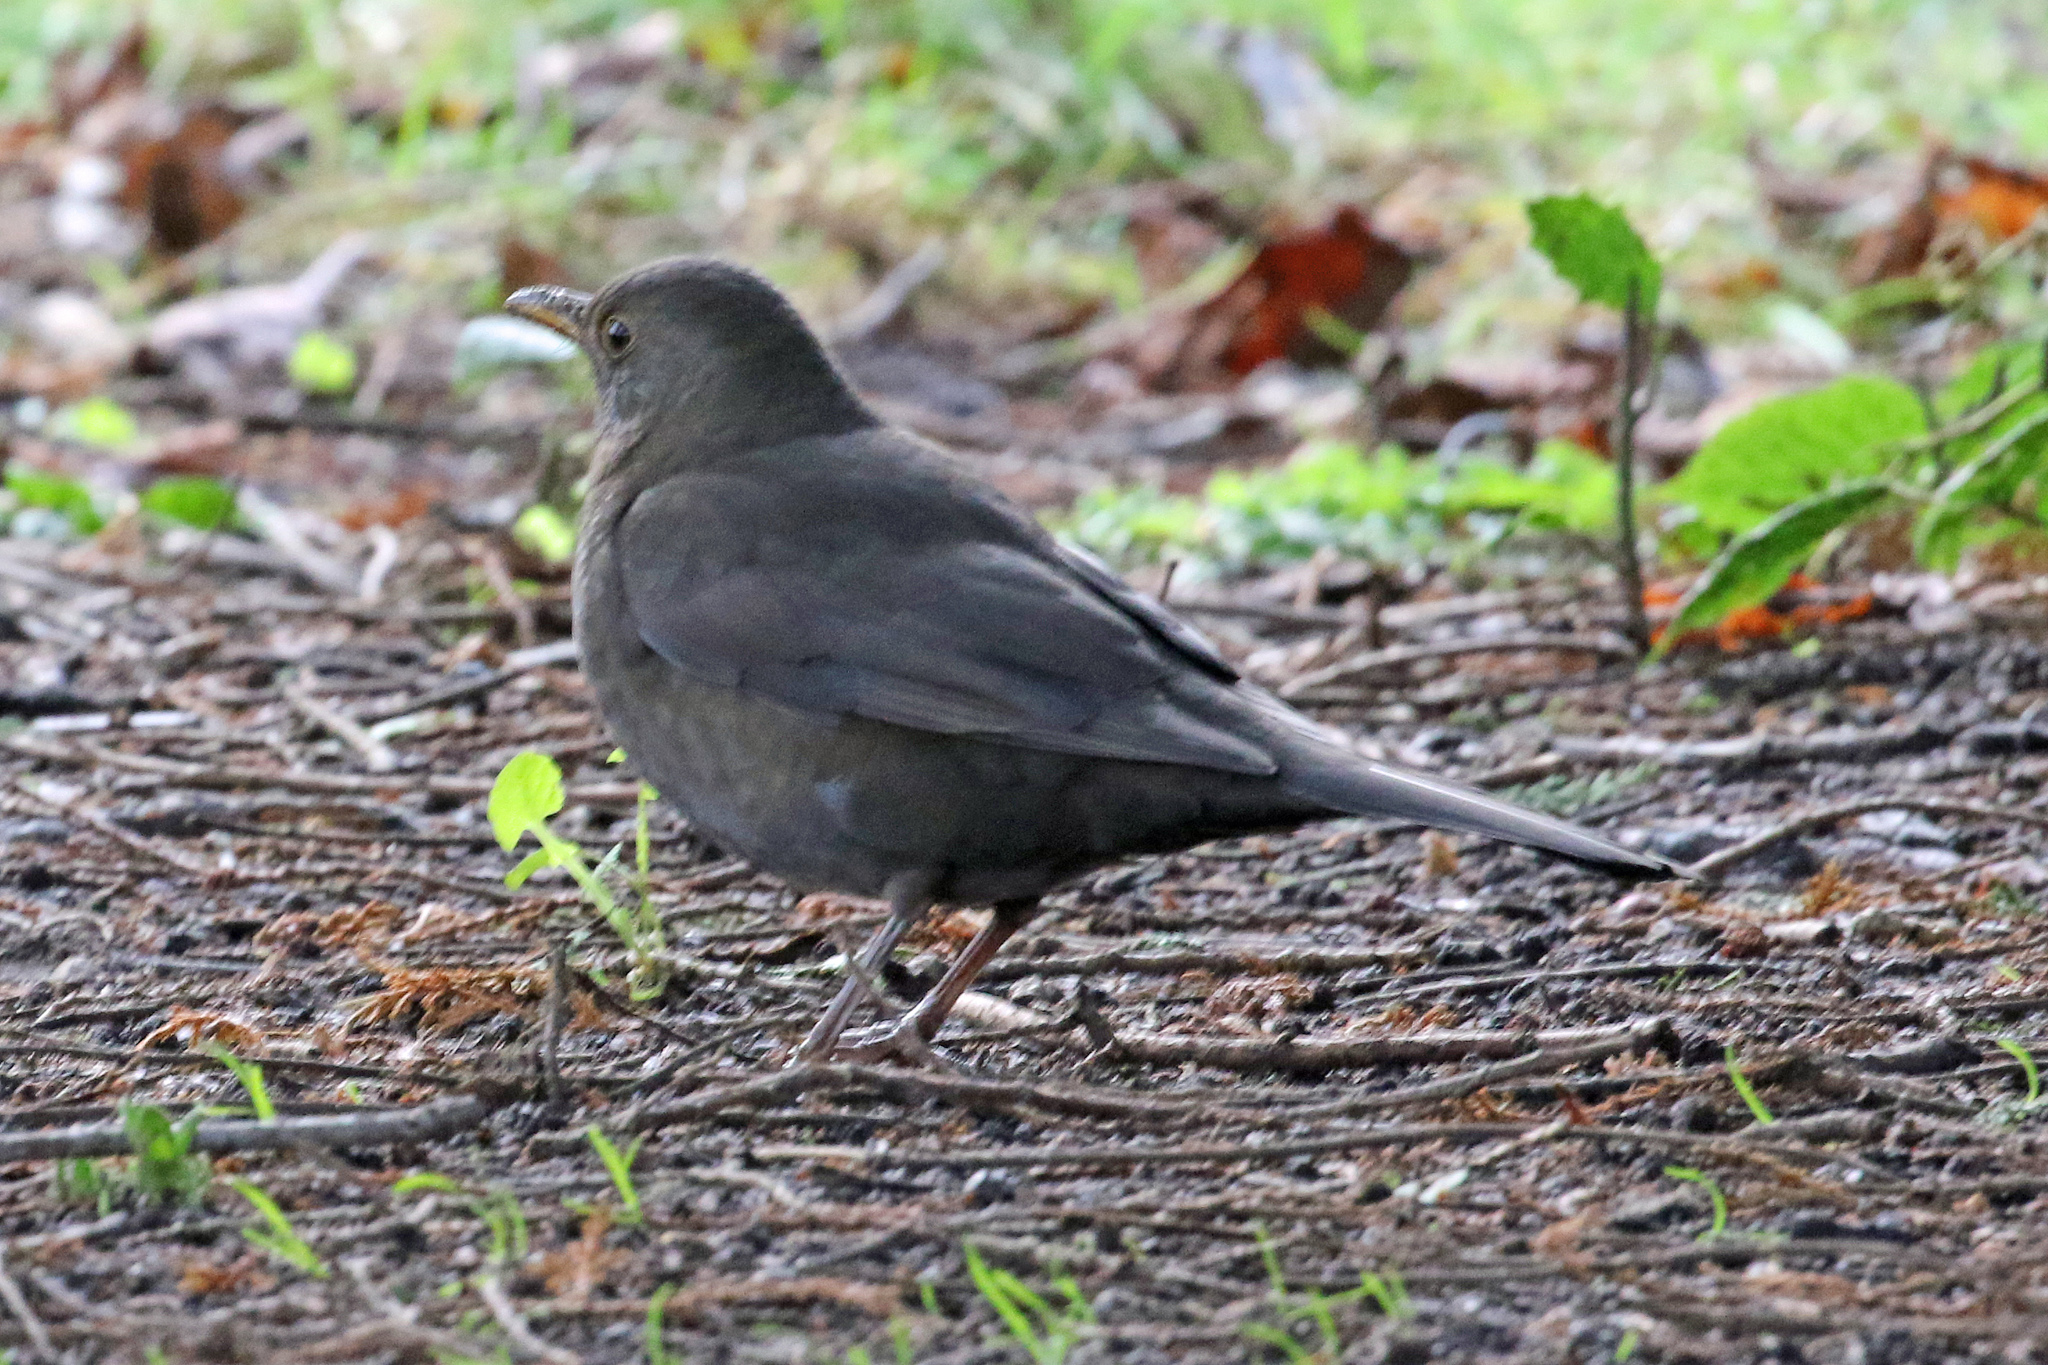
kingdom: Animalia
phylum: Chordata
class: Aves
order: Passeriformes
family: Turdidae
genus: Turdus
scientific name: Turdus merula
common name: Common blackbird
